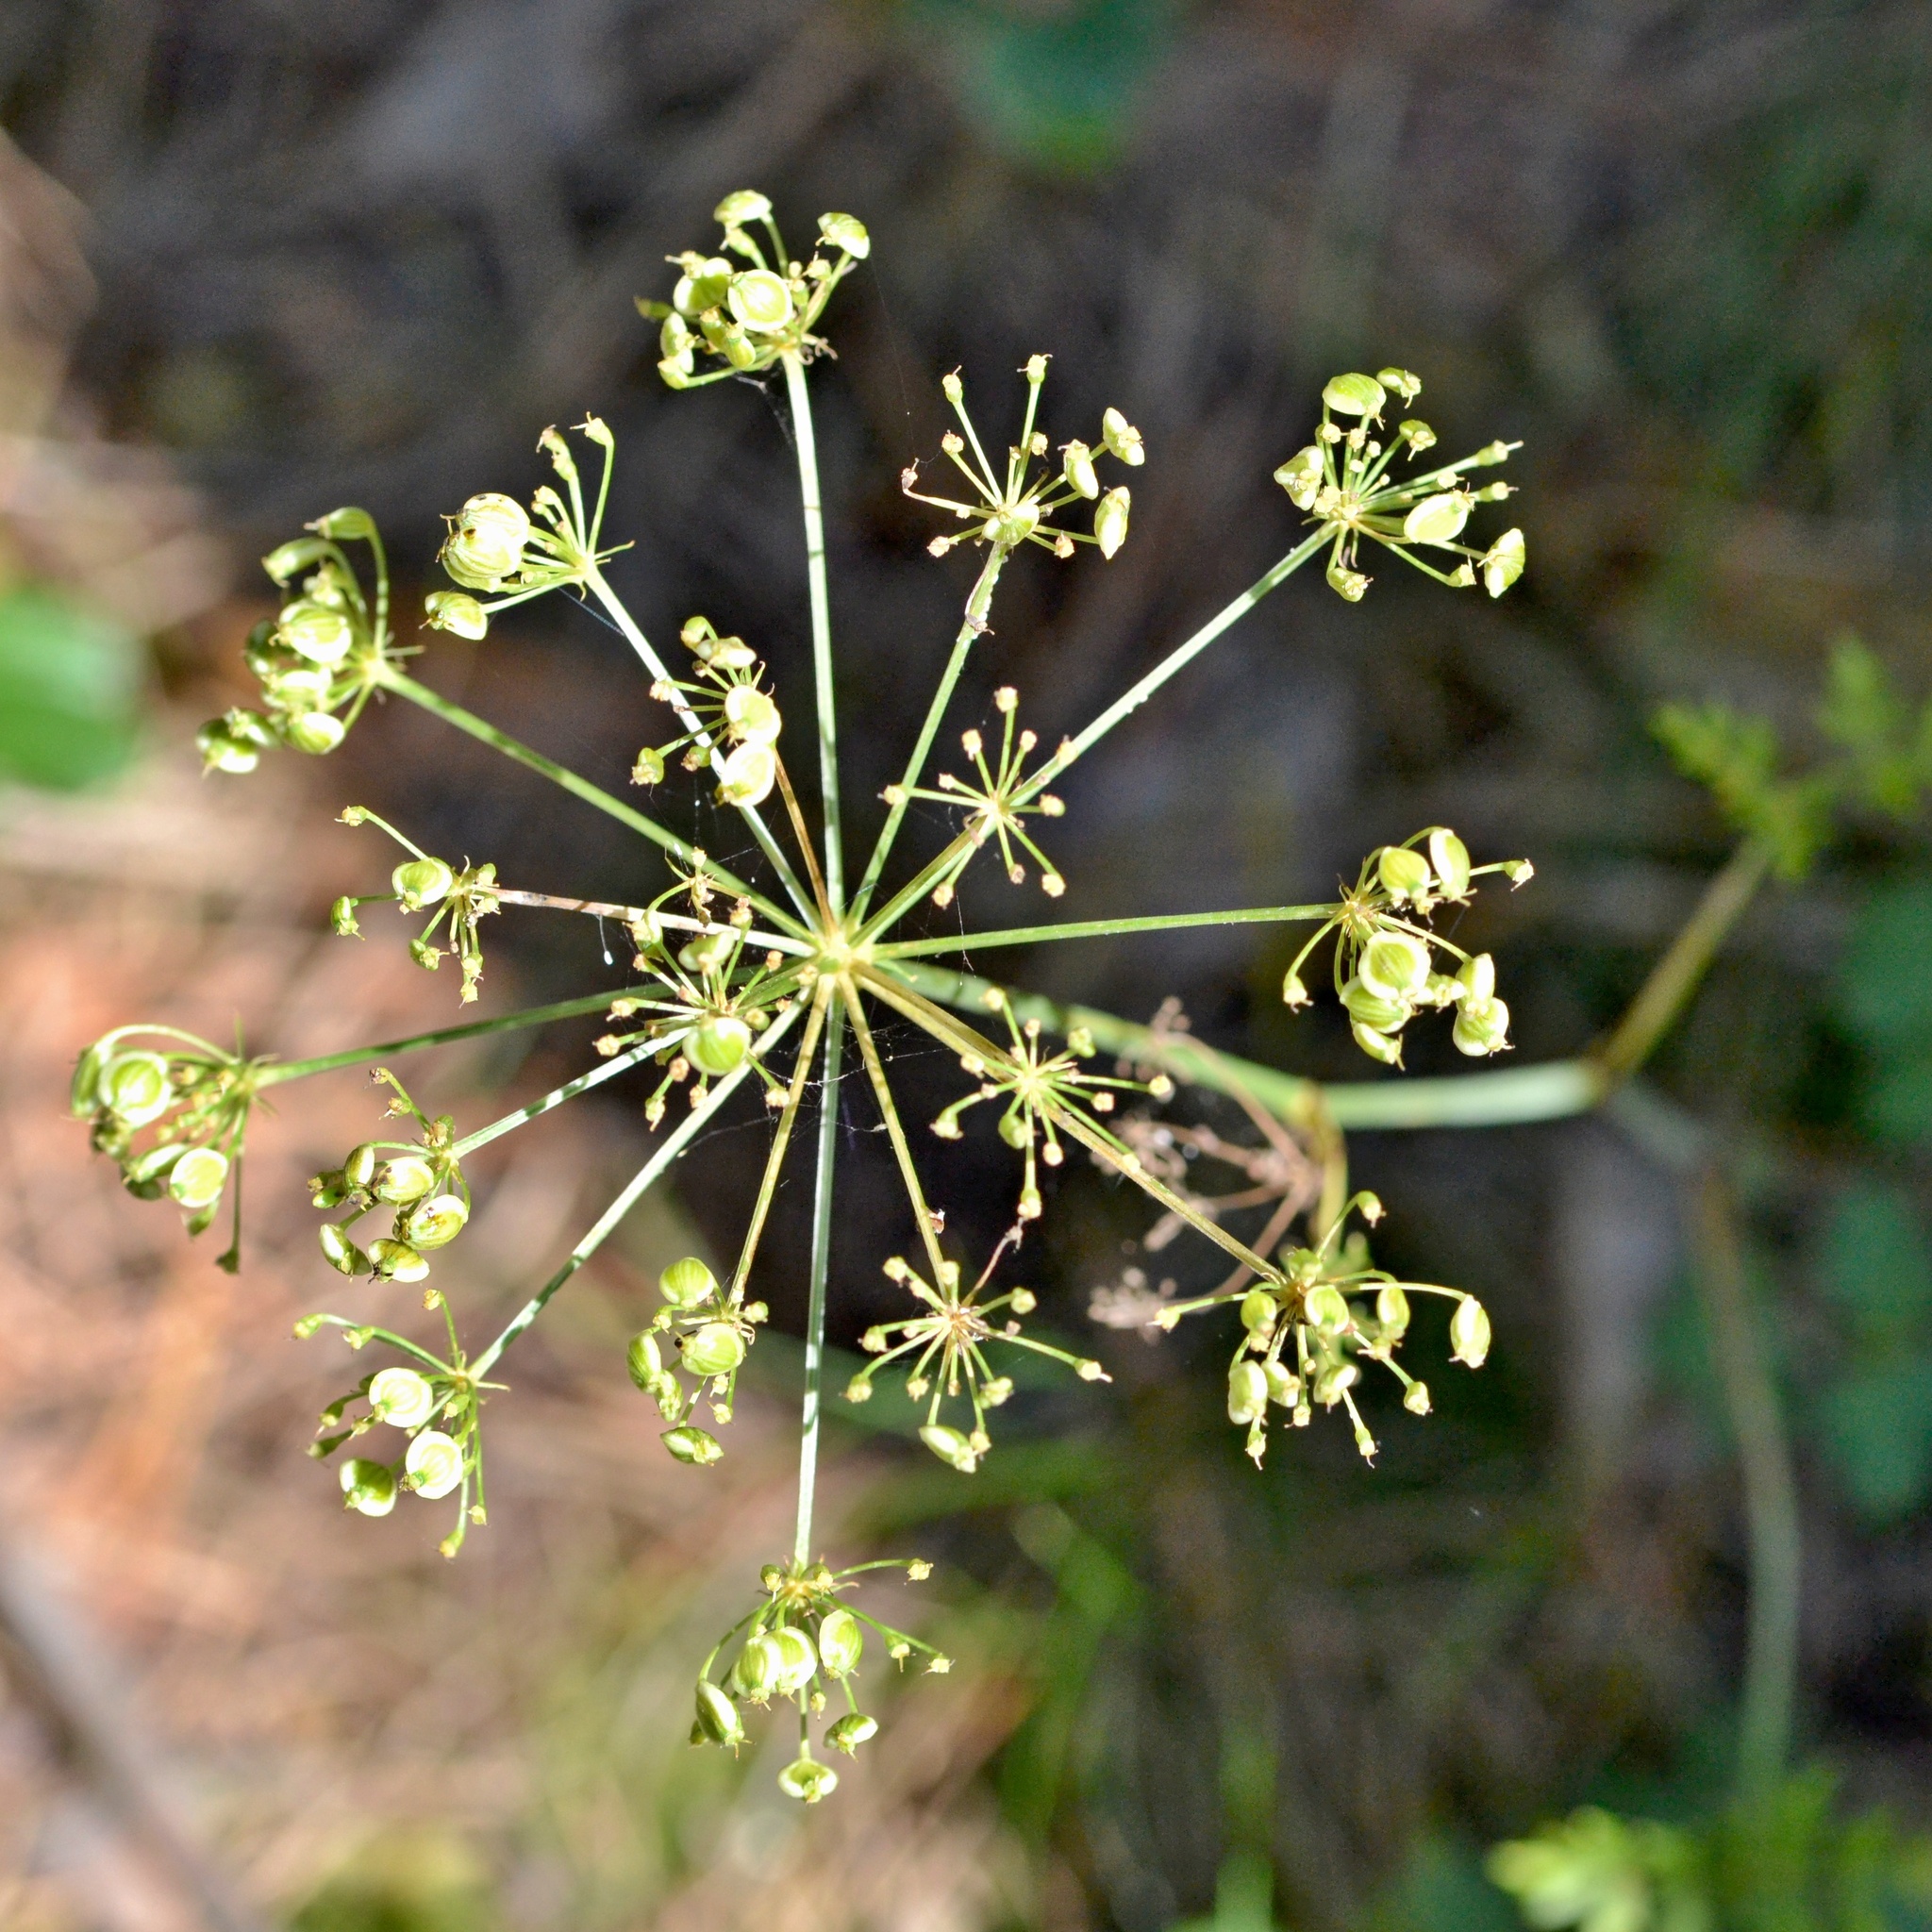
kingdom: Plantae
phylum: Tracheophyta
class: Magnoliopsida
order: Apiales
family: Apiaceae
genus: Oreoselinum
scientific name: Oreoselinum nigrum
